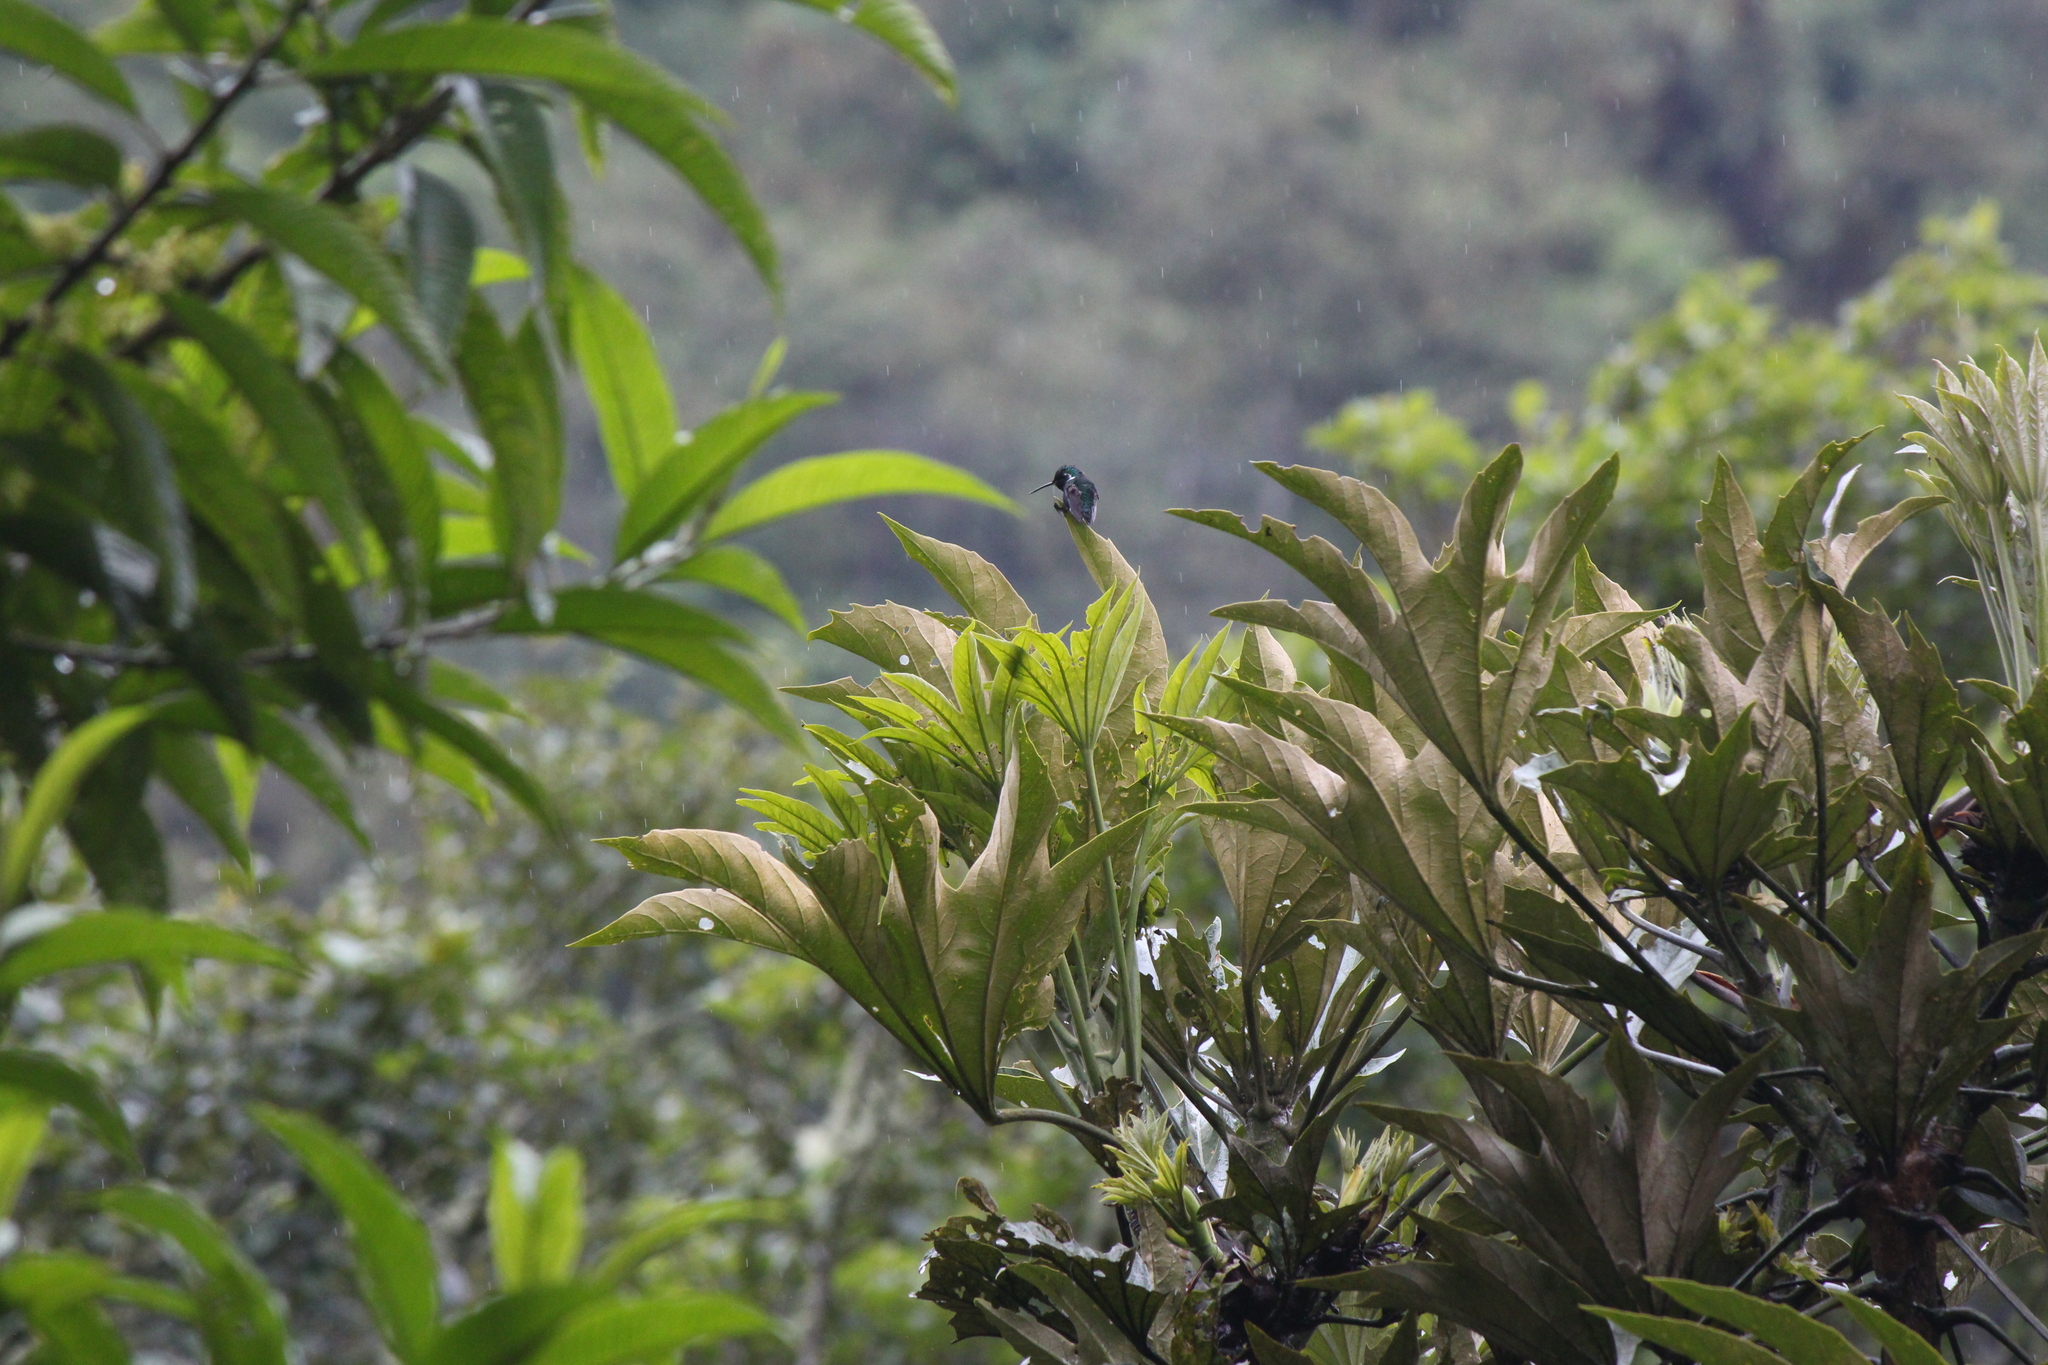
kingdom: Animalia
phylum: Chordata
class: Aves
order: Apodiformes
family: Trochilidae
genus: Chaetocercus
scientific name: Chaetocercus mulsant
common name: White-bellied woodstar
